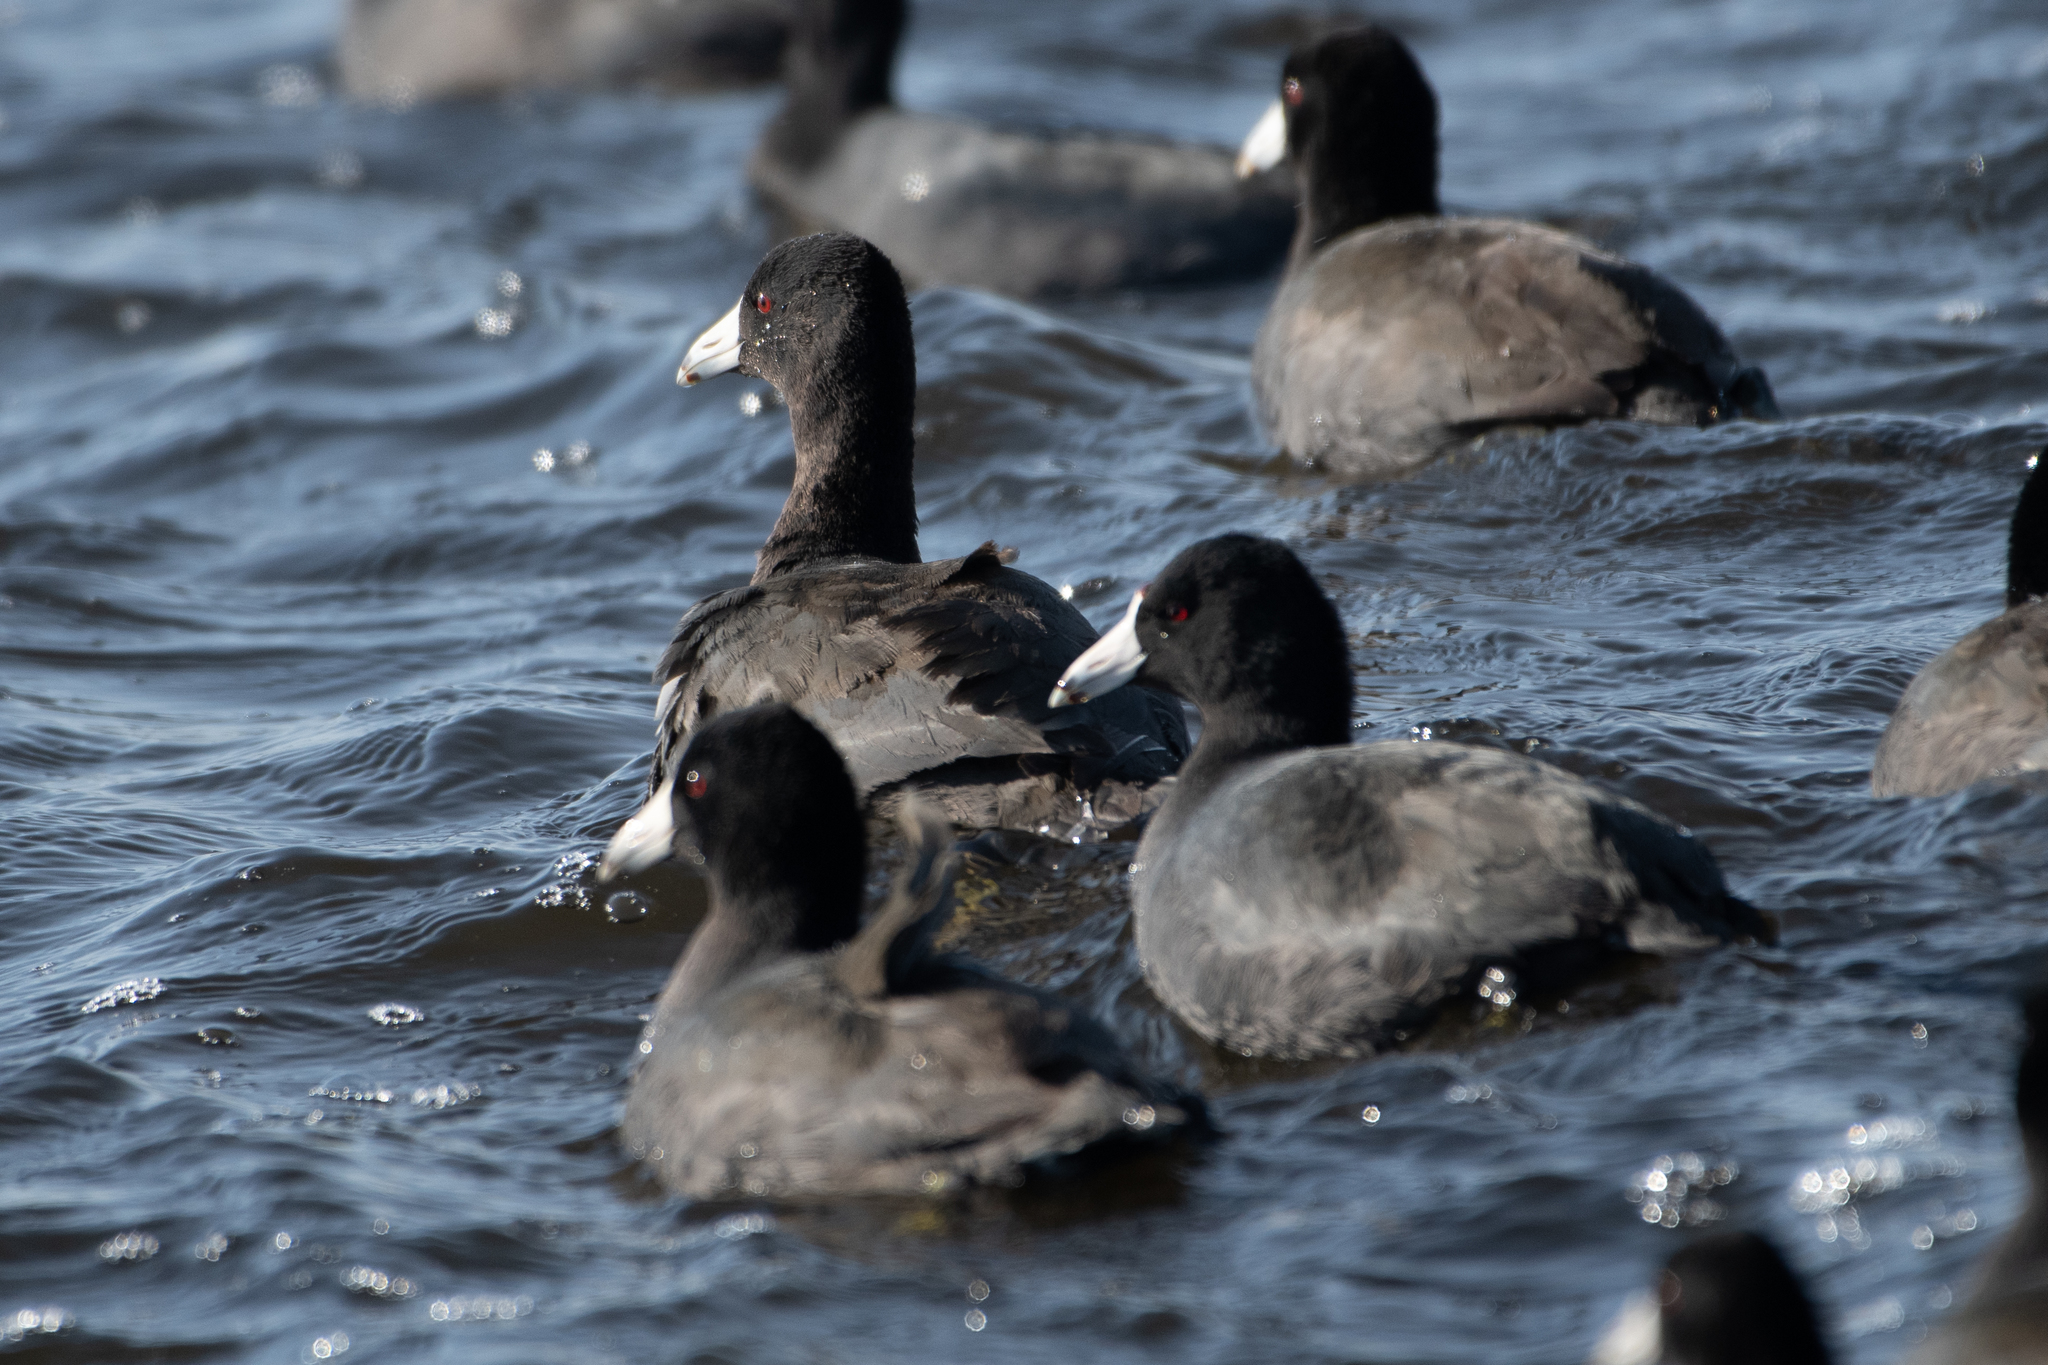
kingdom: Animalia
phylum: Chordata
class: Aves
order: Gruiformes
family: Rallidae
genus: Fulica
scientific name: Fulica americana
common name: American coot
